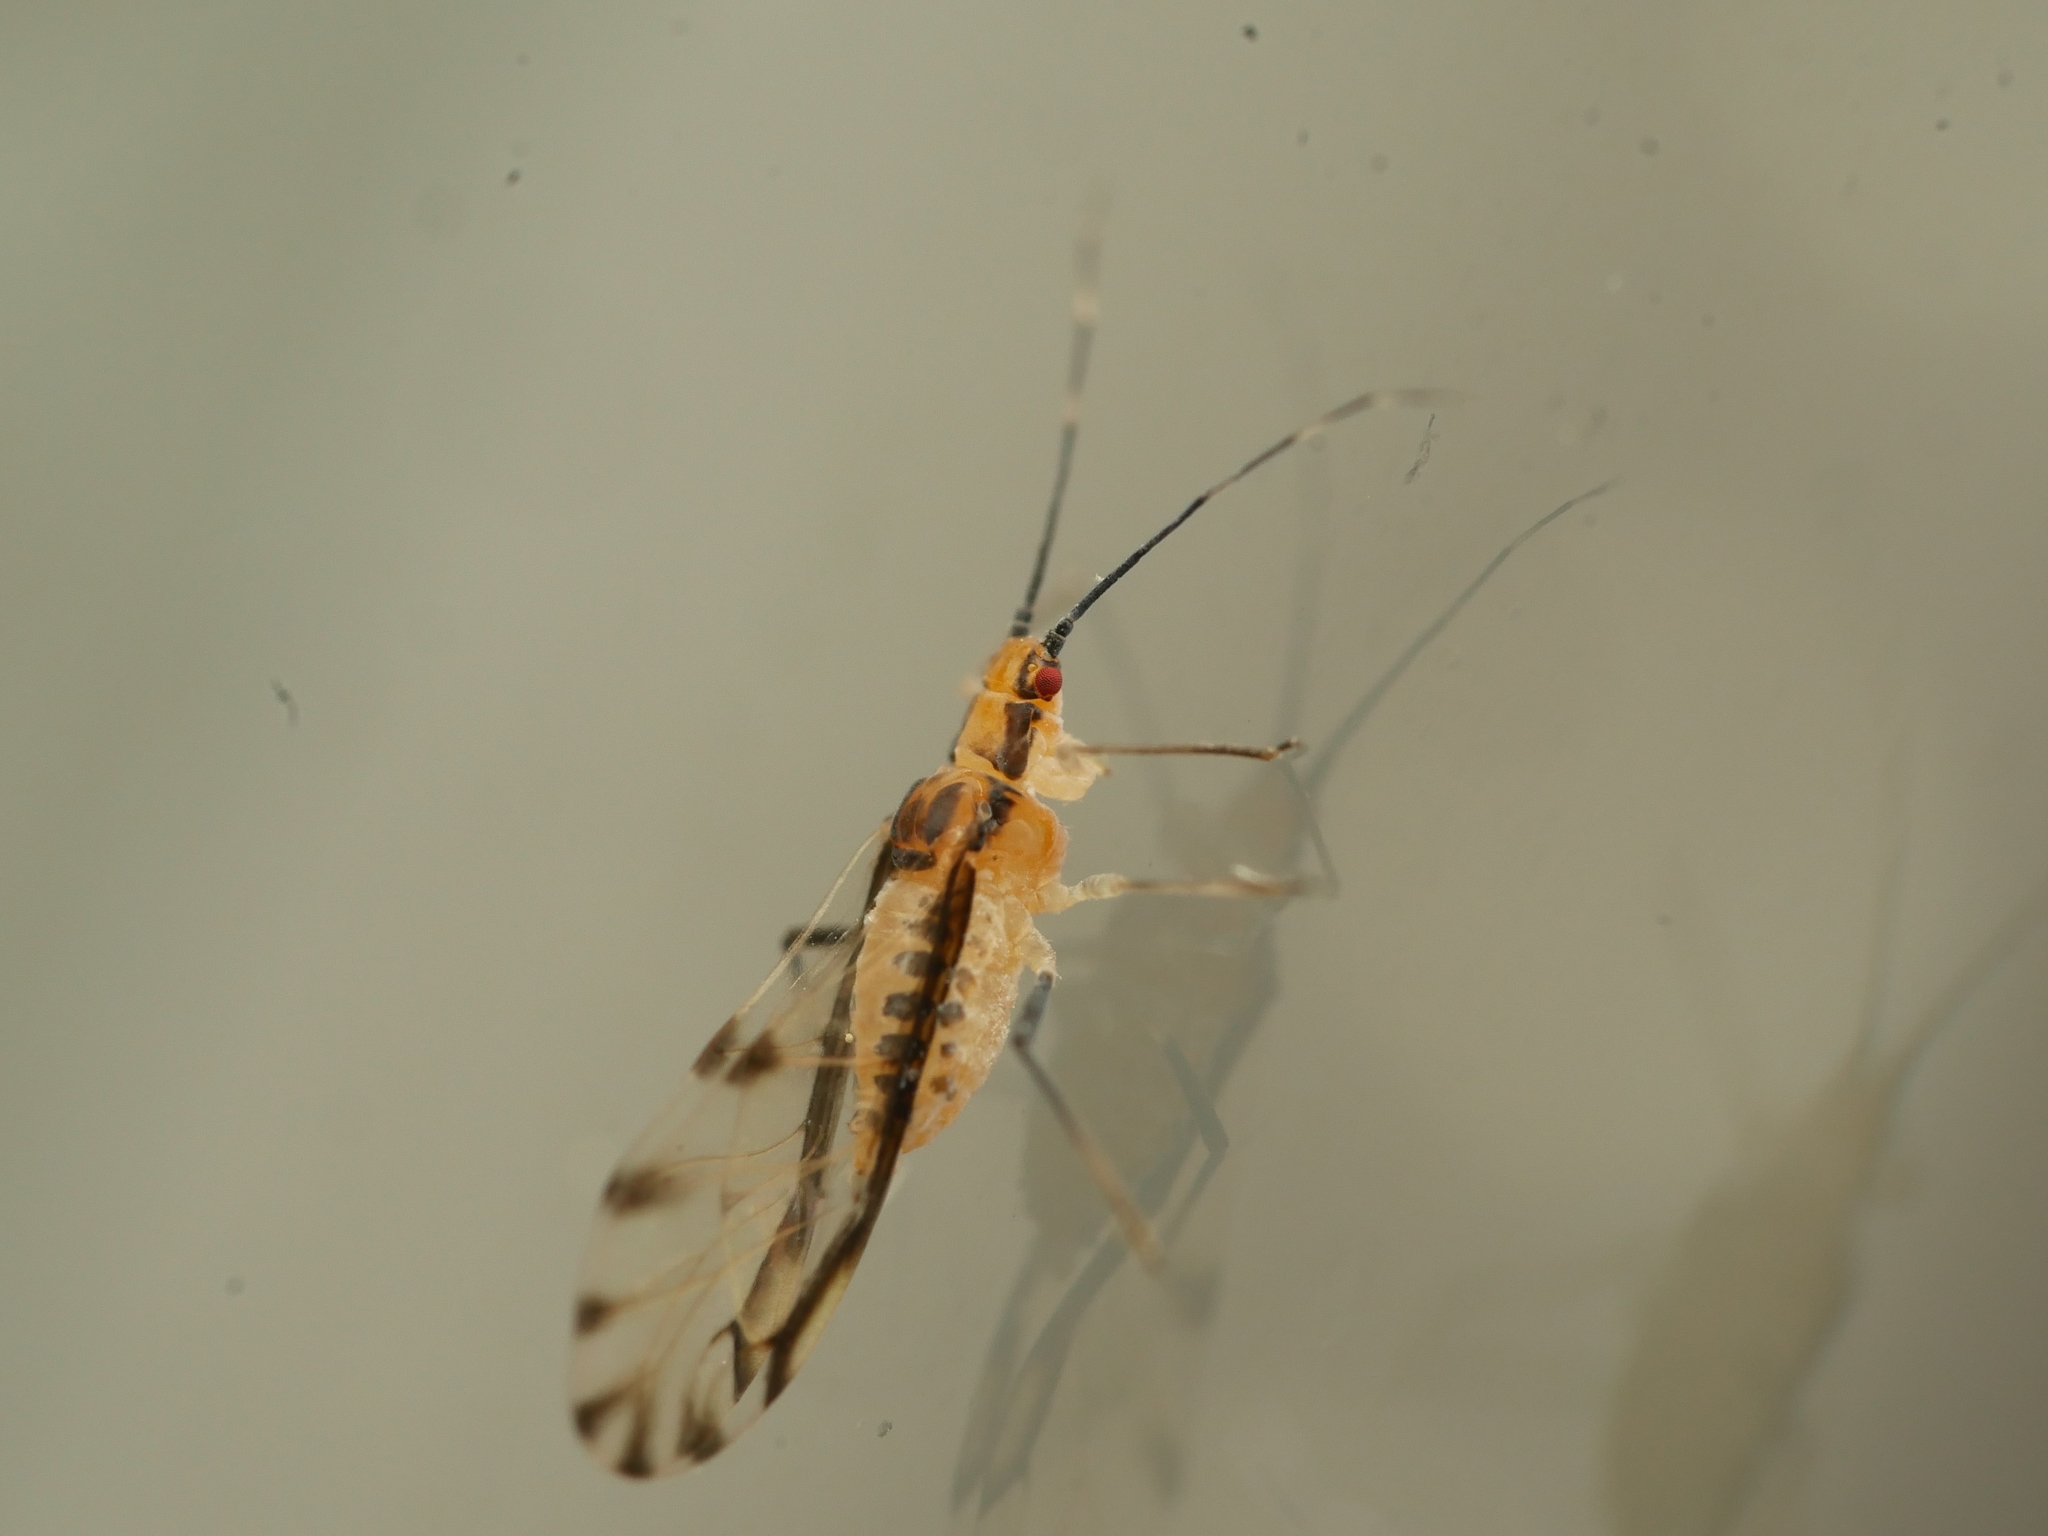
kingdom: Animalia
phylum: Arthropoda
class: Insecta
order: Hemiptera
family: Aphididae
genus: Eucallipterus
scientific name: Eucallipterus tiliae
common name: Aphid
